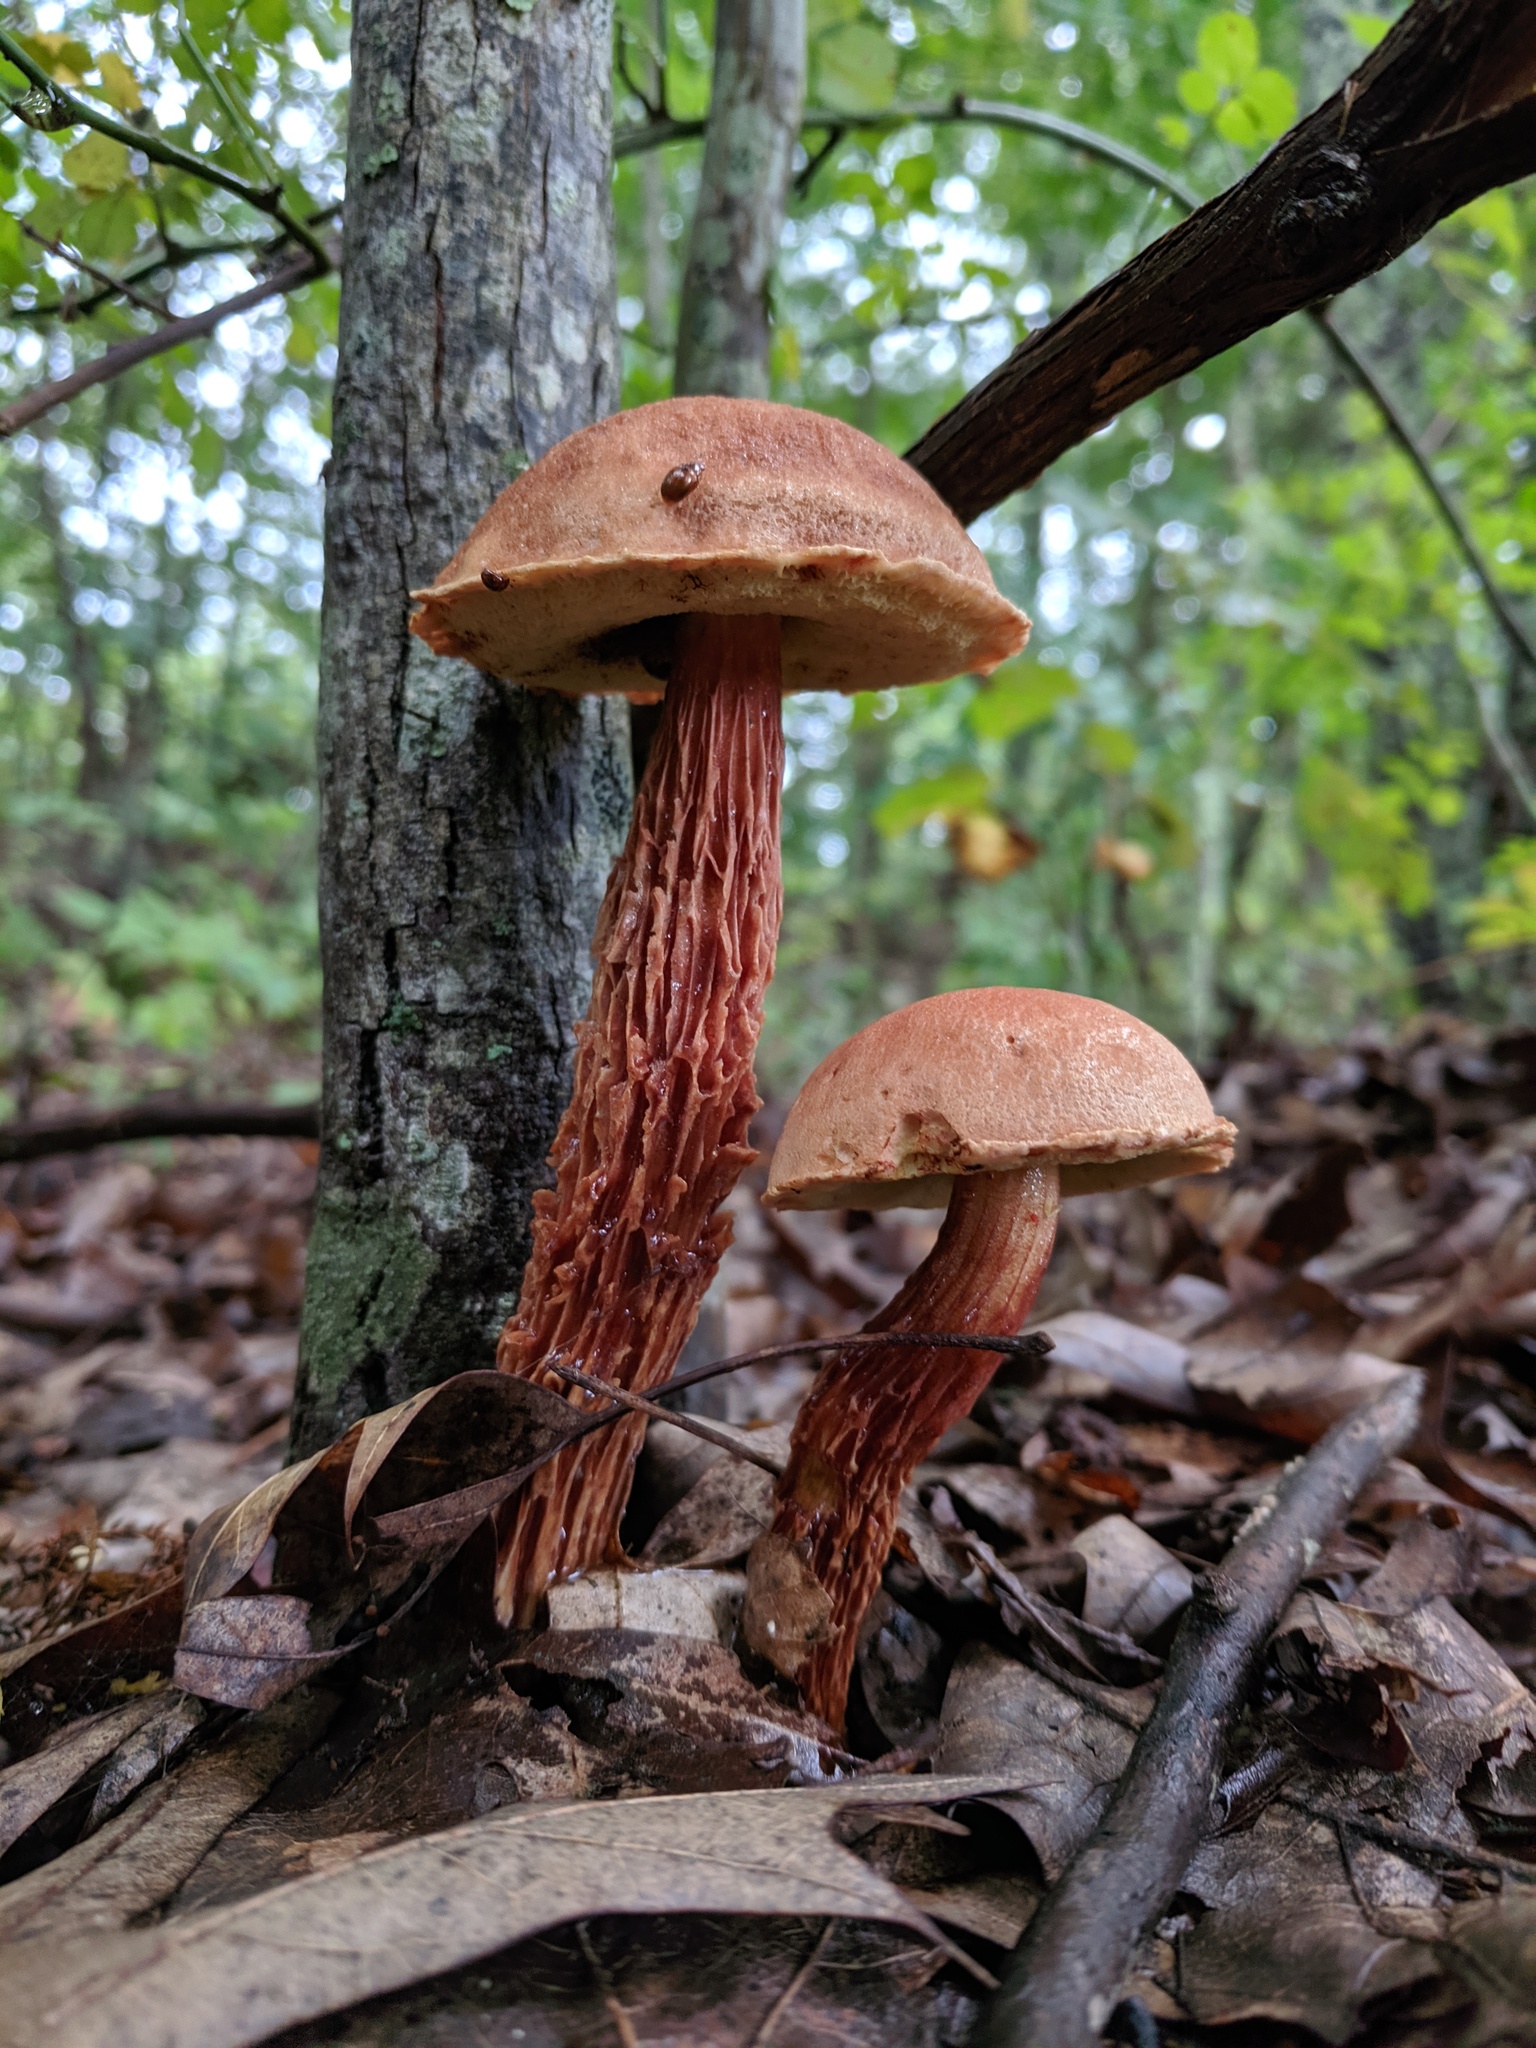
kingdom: Fungi
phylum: Basidiomycota
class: Agaricomycetes
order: Boletales
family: Boletaceae
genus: Aureoboletus
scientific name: Aureoboletus russellii
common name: Russell's bolete
